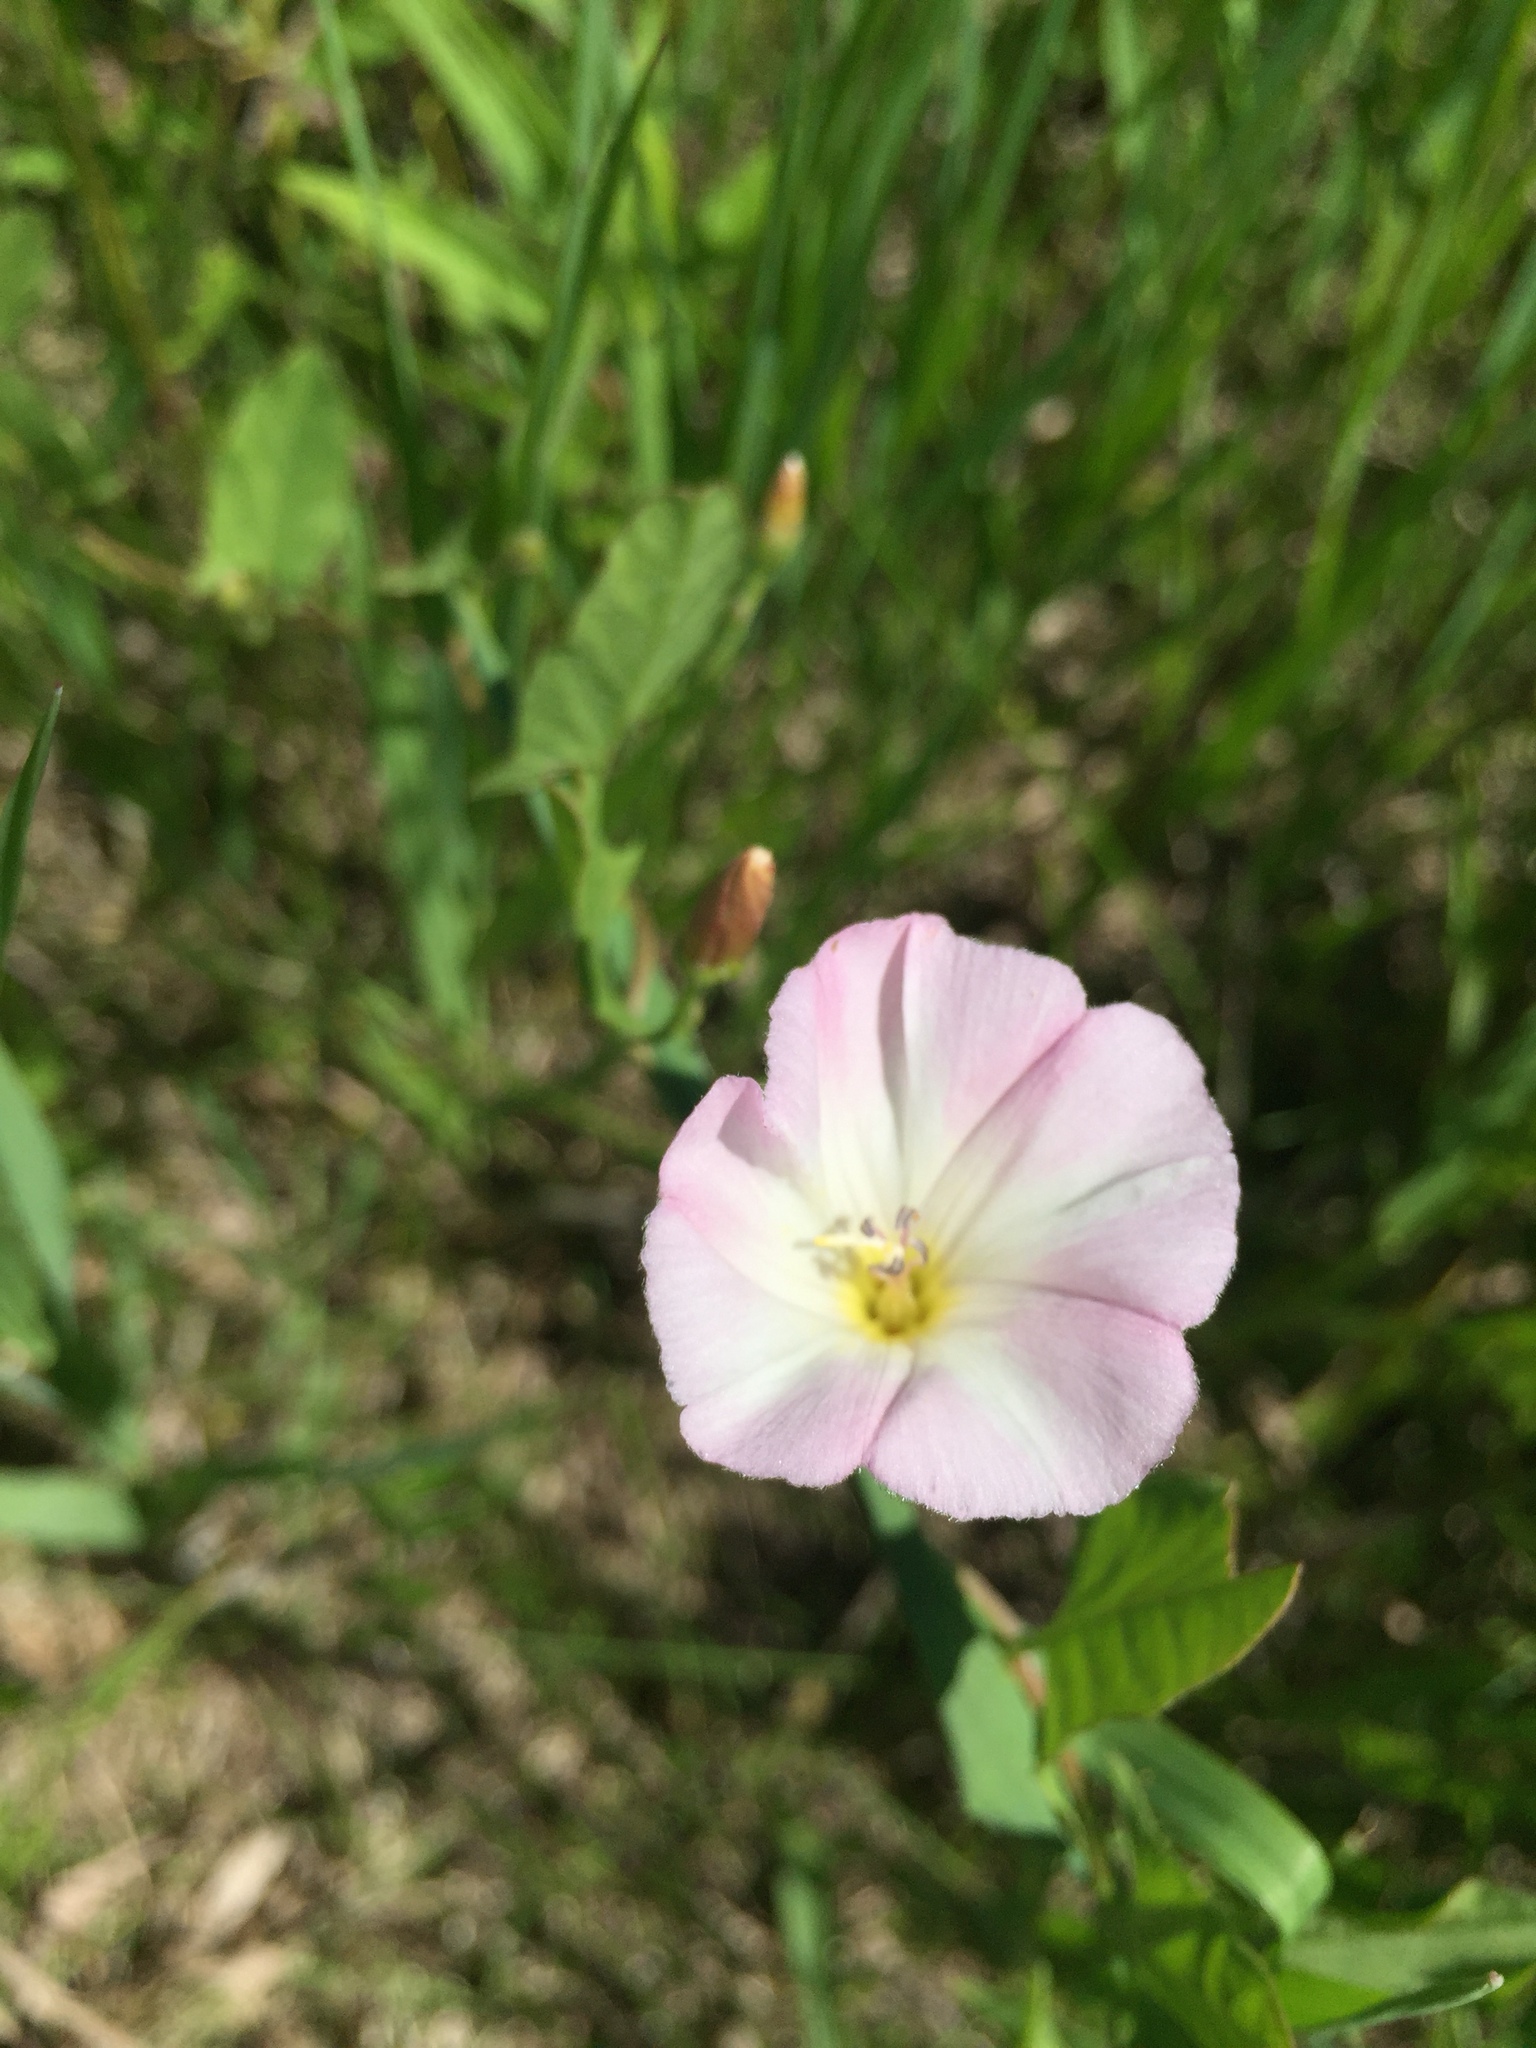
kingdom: Plantae
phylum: Tracheophyta
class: Magnoliopsida
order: Solanales
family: Convolvulaceae
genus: Convolvulus
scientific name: Convolvulus arvensis
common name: Field bindweed
